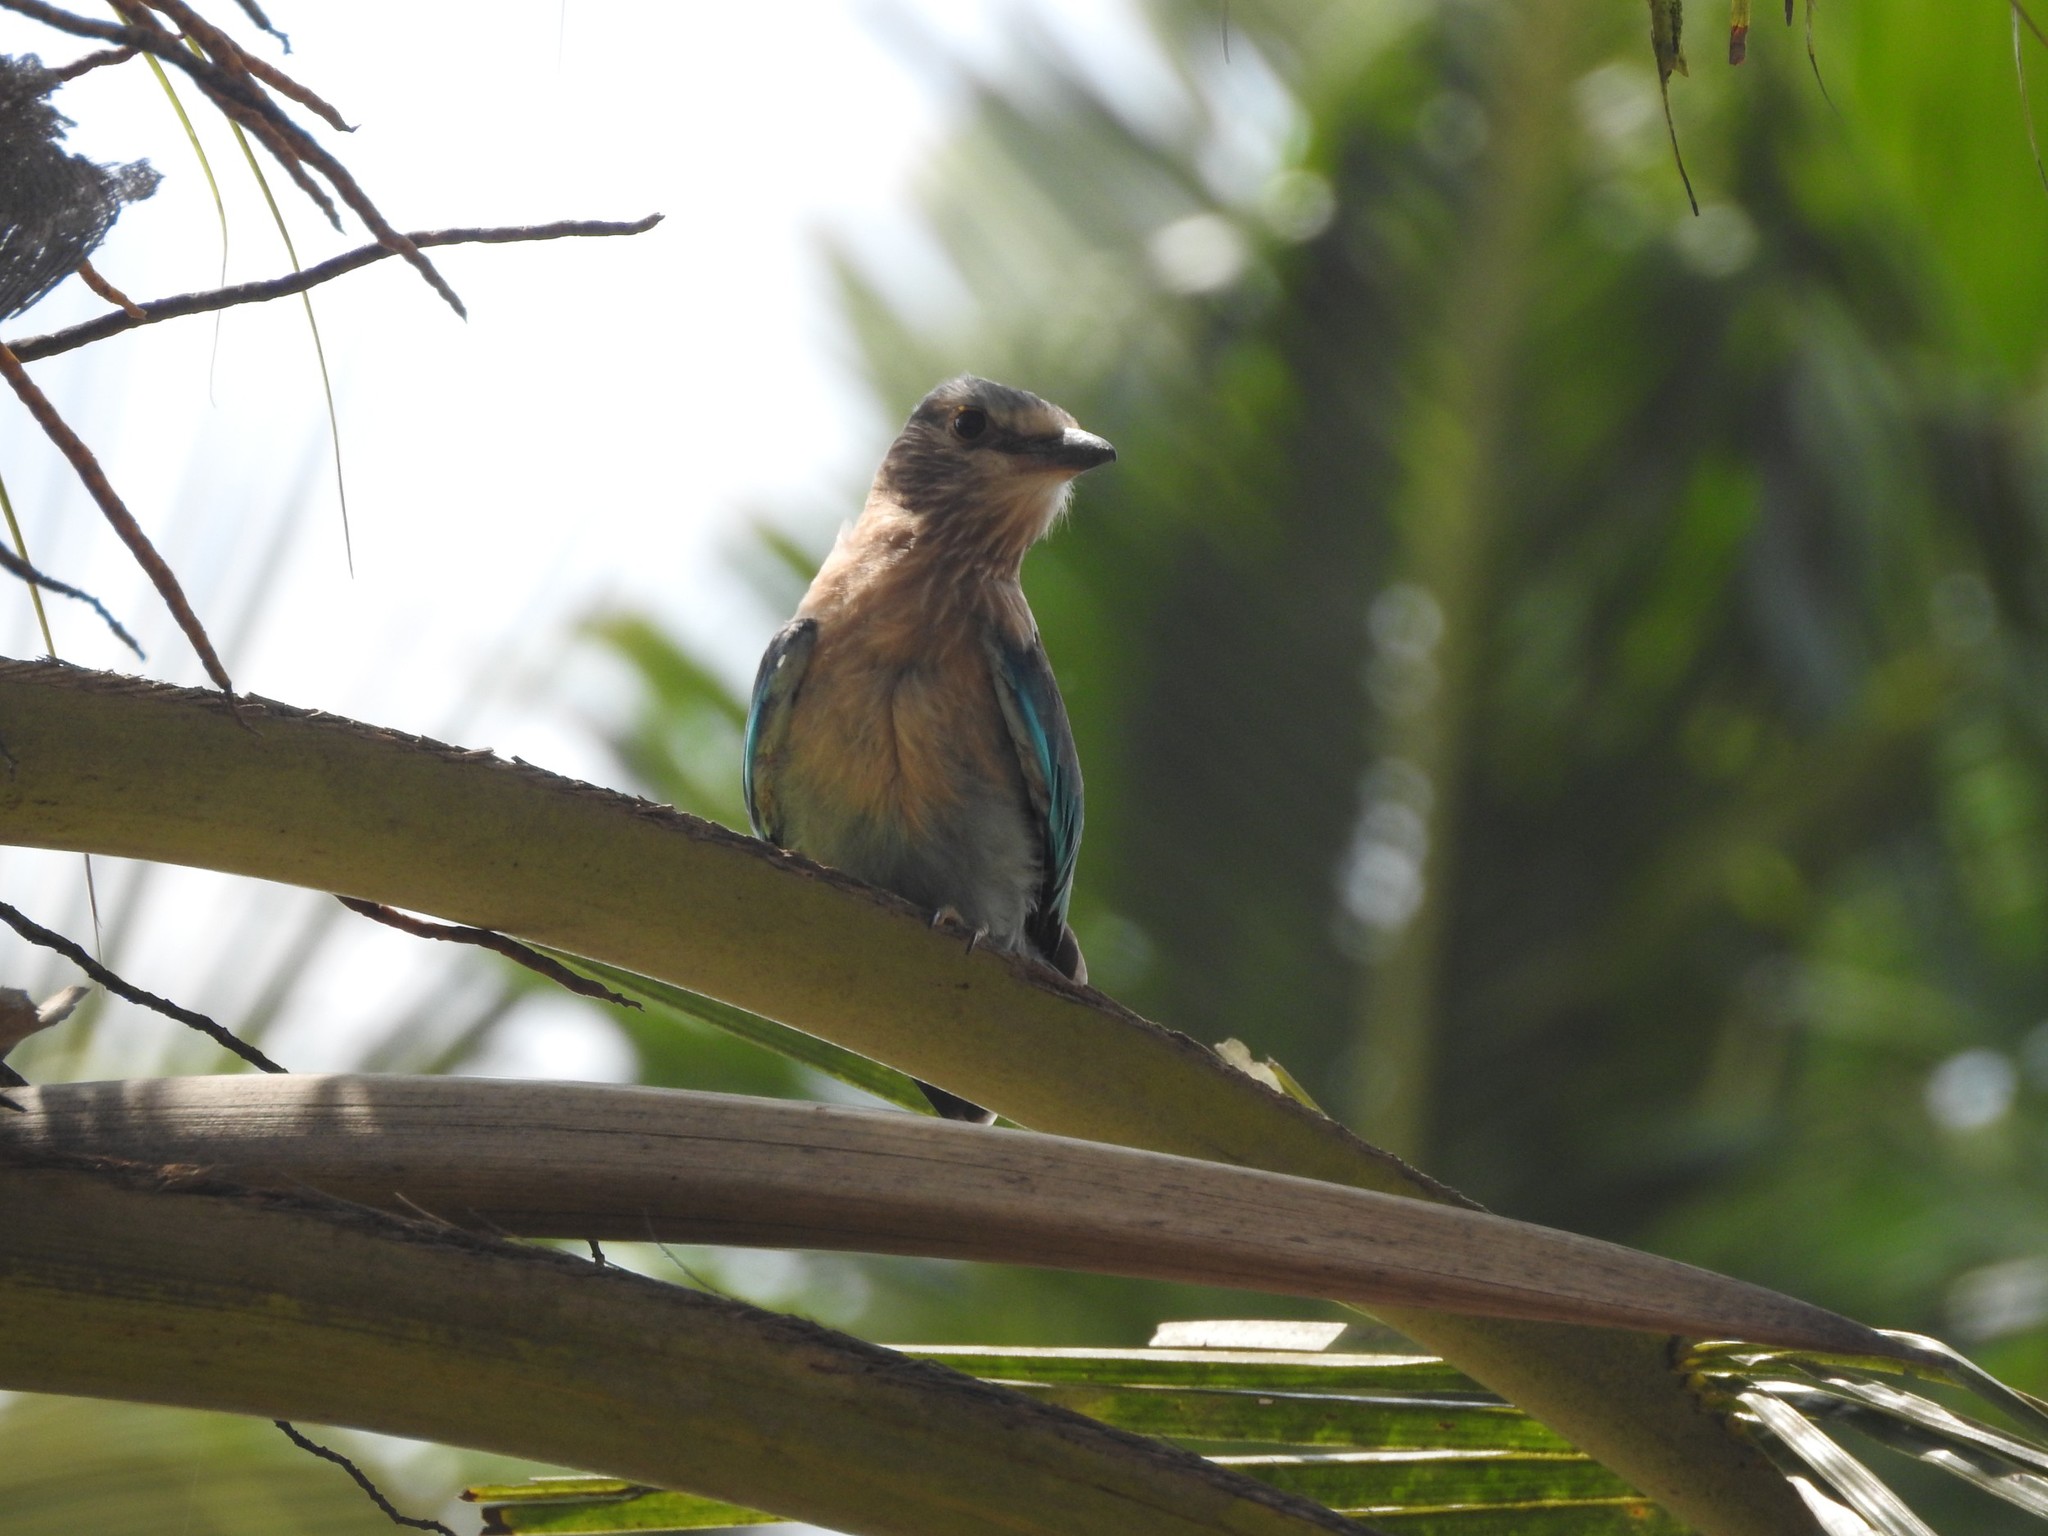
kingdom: Animalia
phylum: Chordata
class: Aves
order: Coraciiformes
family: Coraciidae
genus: Coracias
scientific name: Coracias benghalensis
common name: Indian roller
